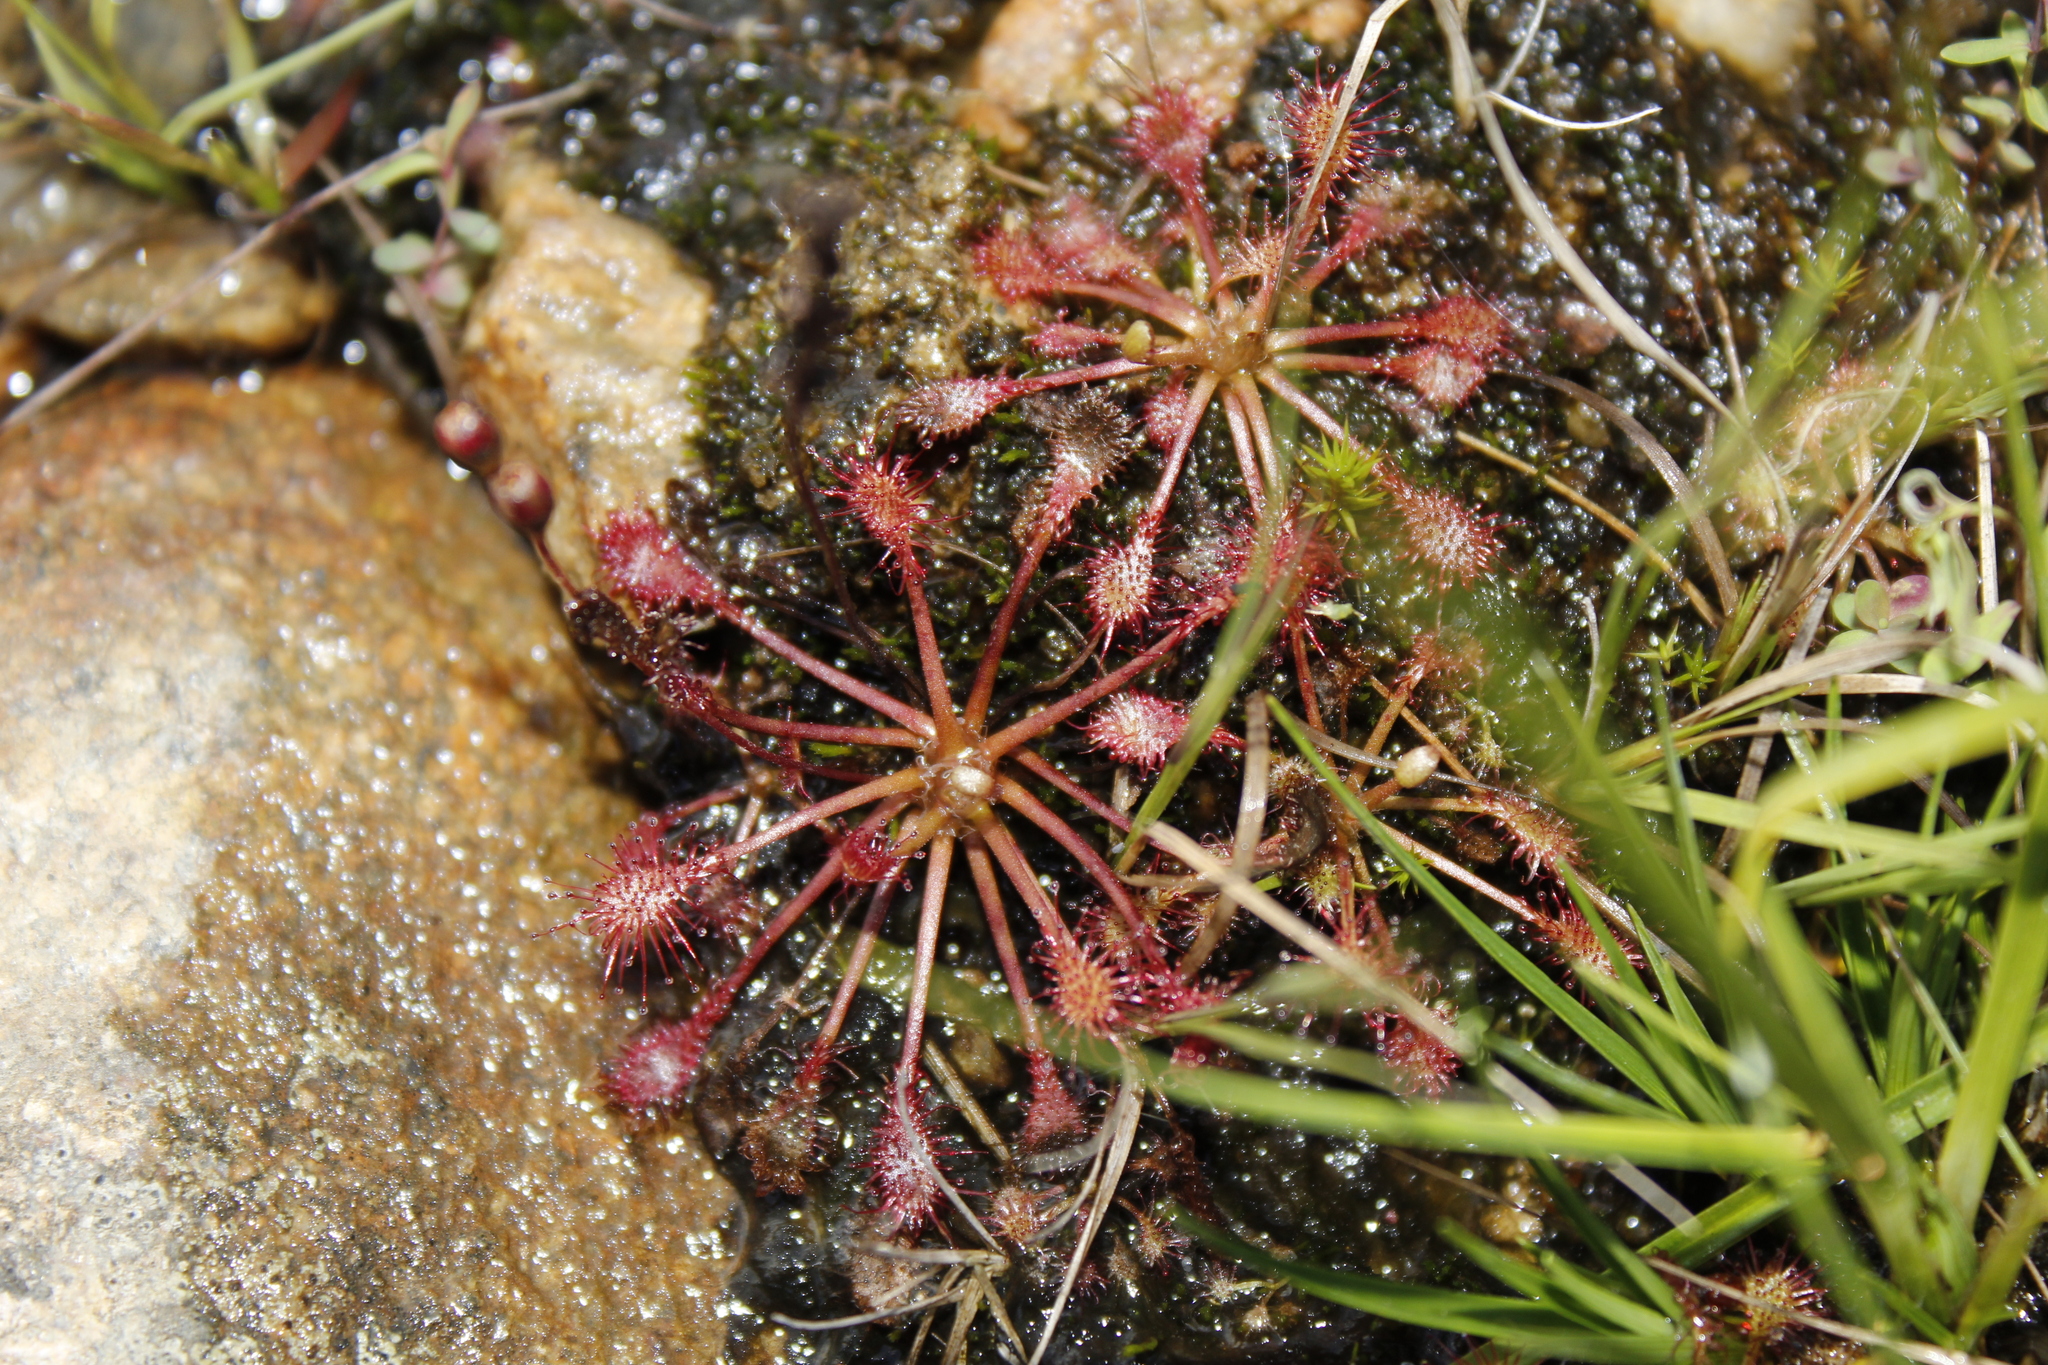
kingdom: Plantae
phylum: Tracheophyta
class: Magnoliopsida
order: Caryophyllales
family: Droseraceae
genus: Drosera
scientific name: Drosera intermedia
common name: Oblong-leaved sundew
